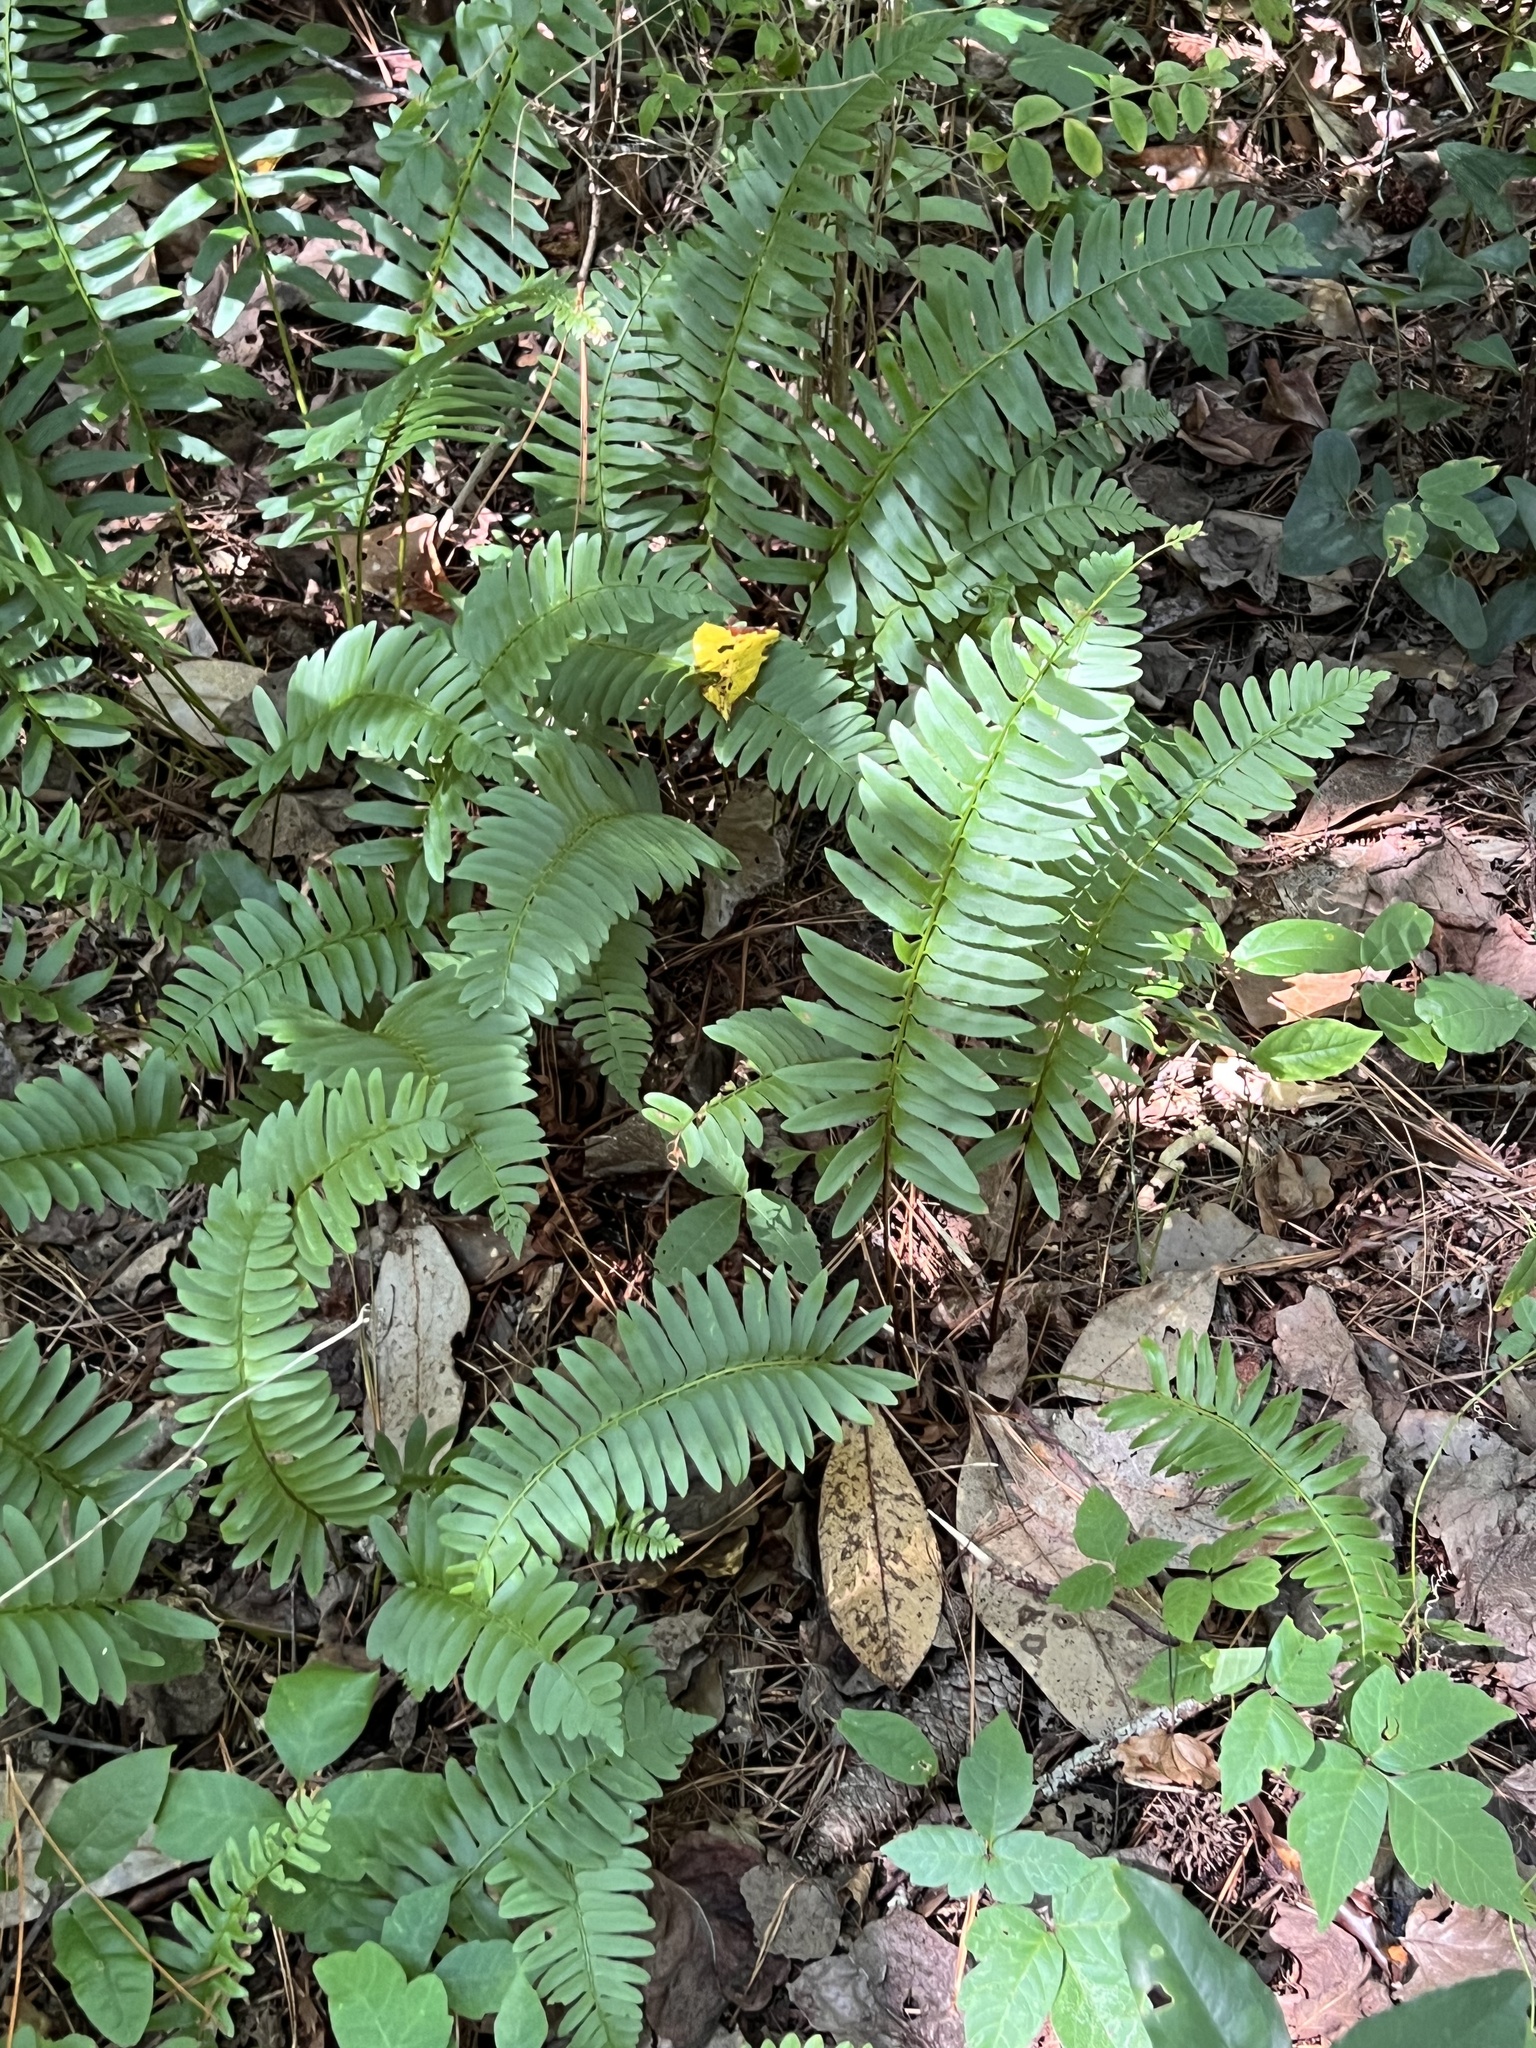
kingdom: Plantae
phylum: Tracheophyta
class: Polypodiopsida
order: Polypodiales
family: Dryopteridaceae
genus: Polystichum
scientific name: Polystichum acrostichoides
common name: Christmas fern
